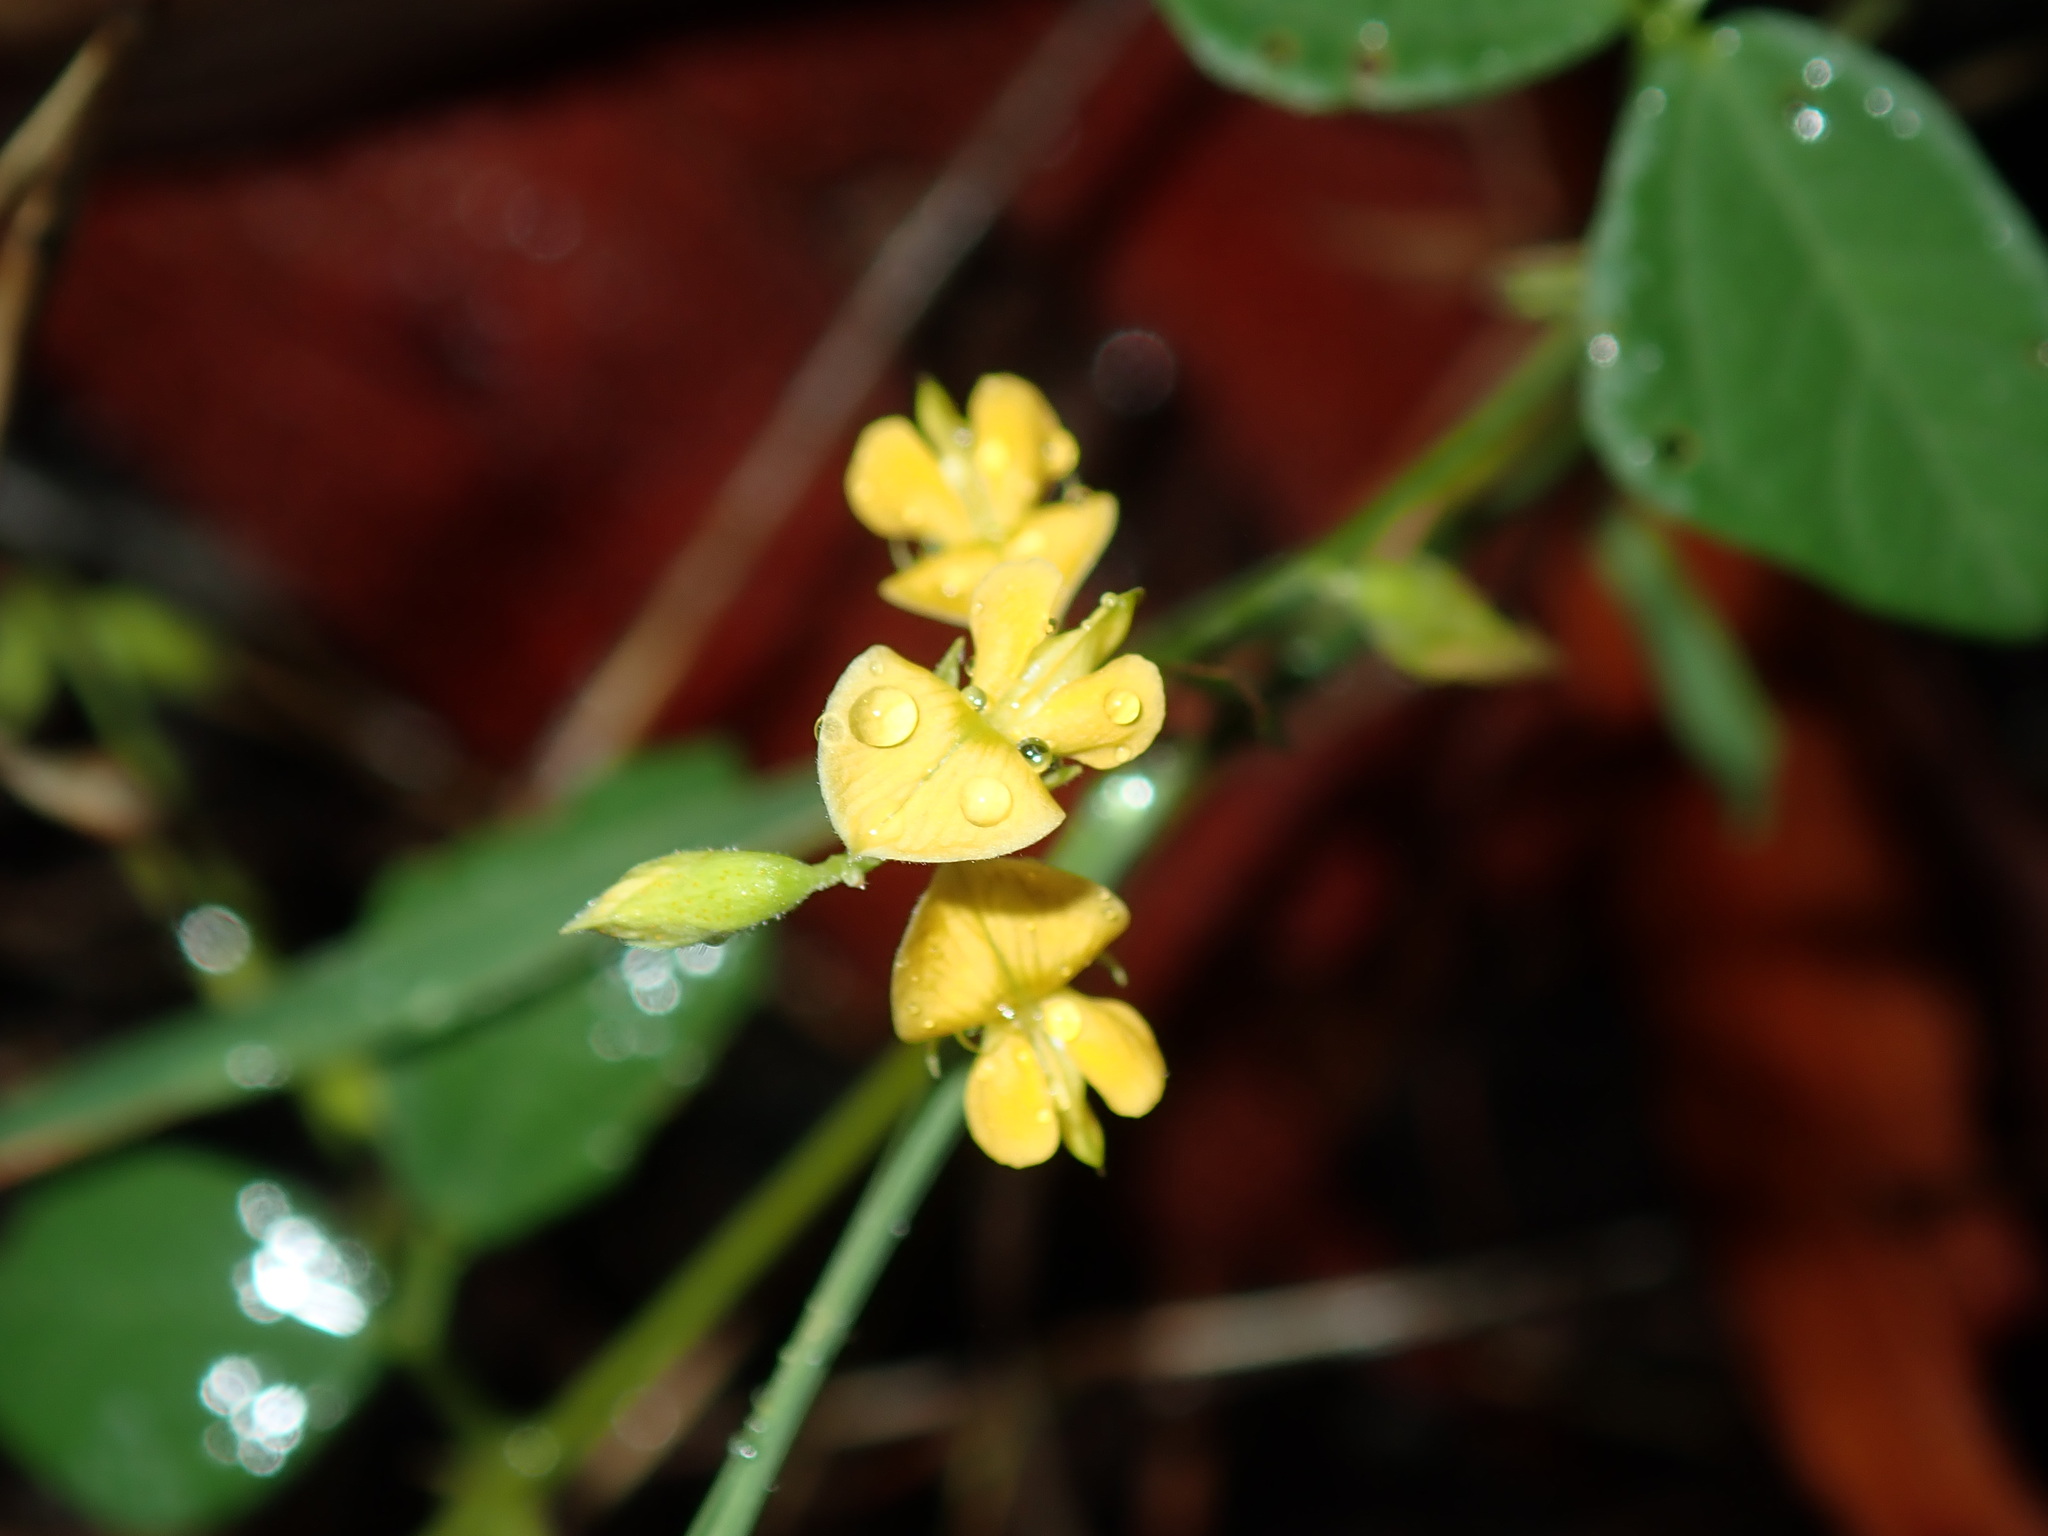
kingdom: Plantae
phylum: Tracheophyta
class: Magnoliopsida
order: Fabales
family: Fabaceae
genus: Vigna
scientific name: Vigna luteola
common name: Hairypod cowpea
